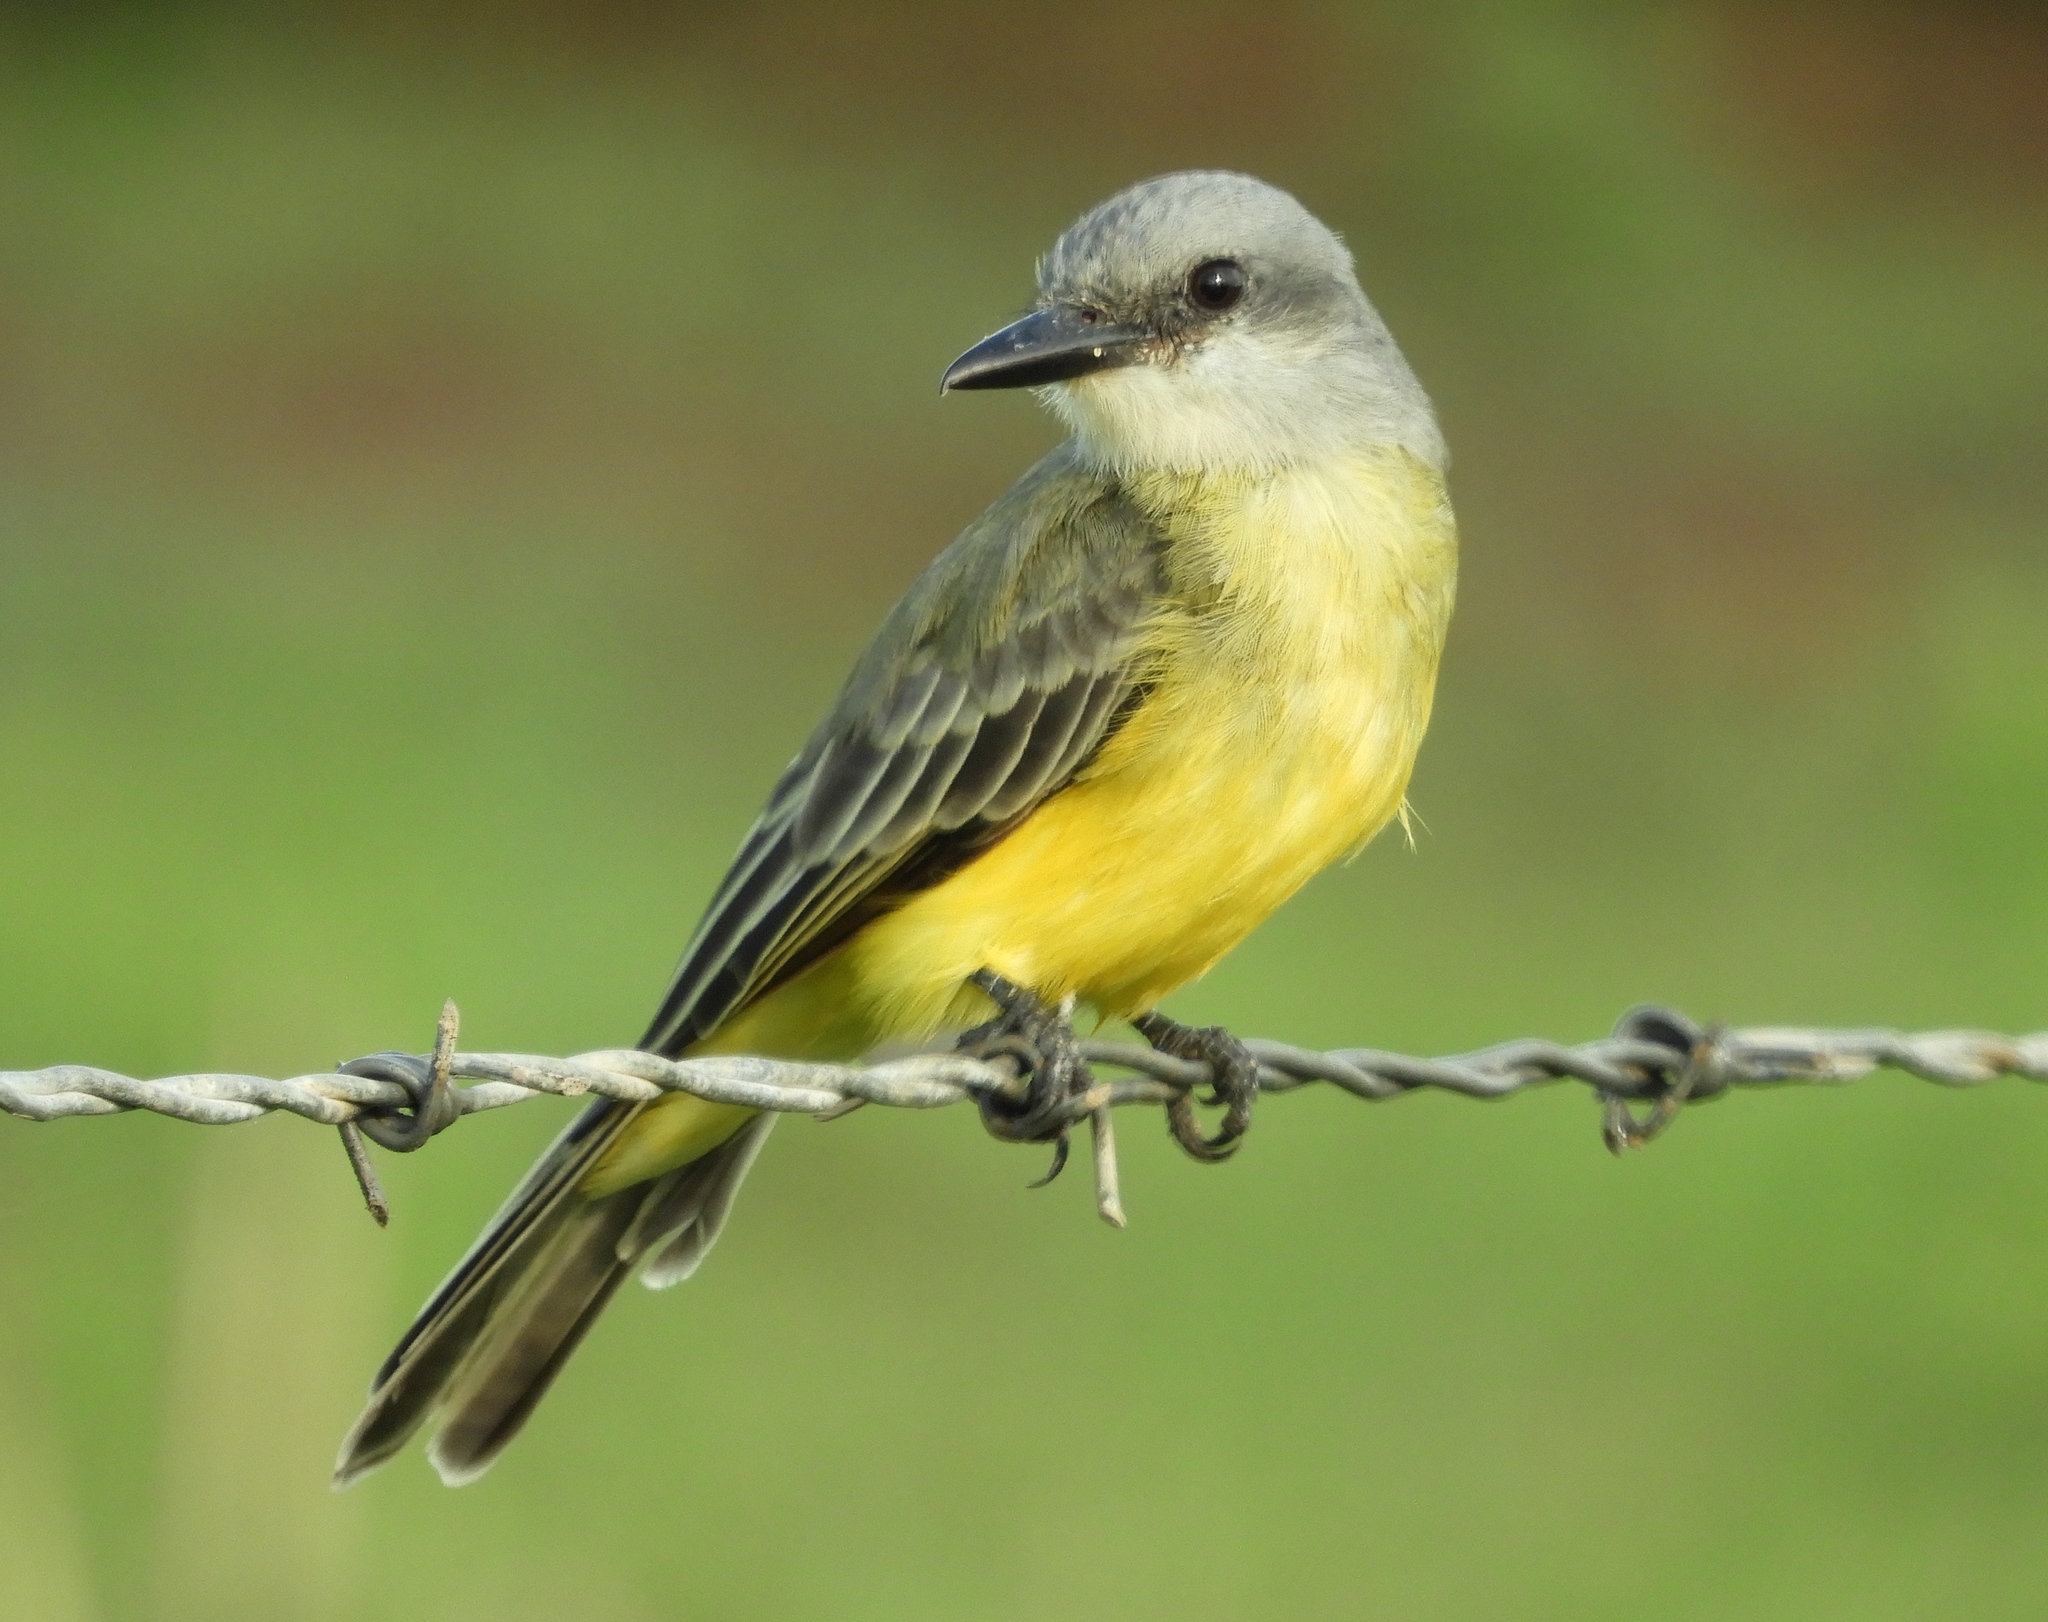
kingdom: Animalia
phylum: Chordata
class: Aves
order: Passeriformes
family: Tyrannidae
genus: Tyrannus
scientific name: Tyrannus melancholicus
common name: Tropical kingbird
